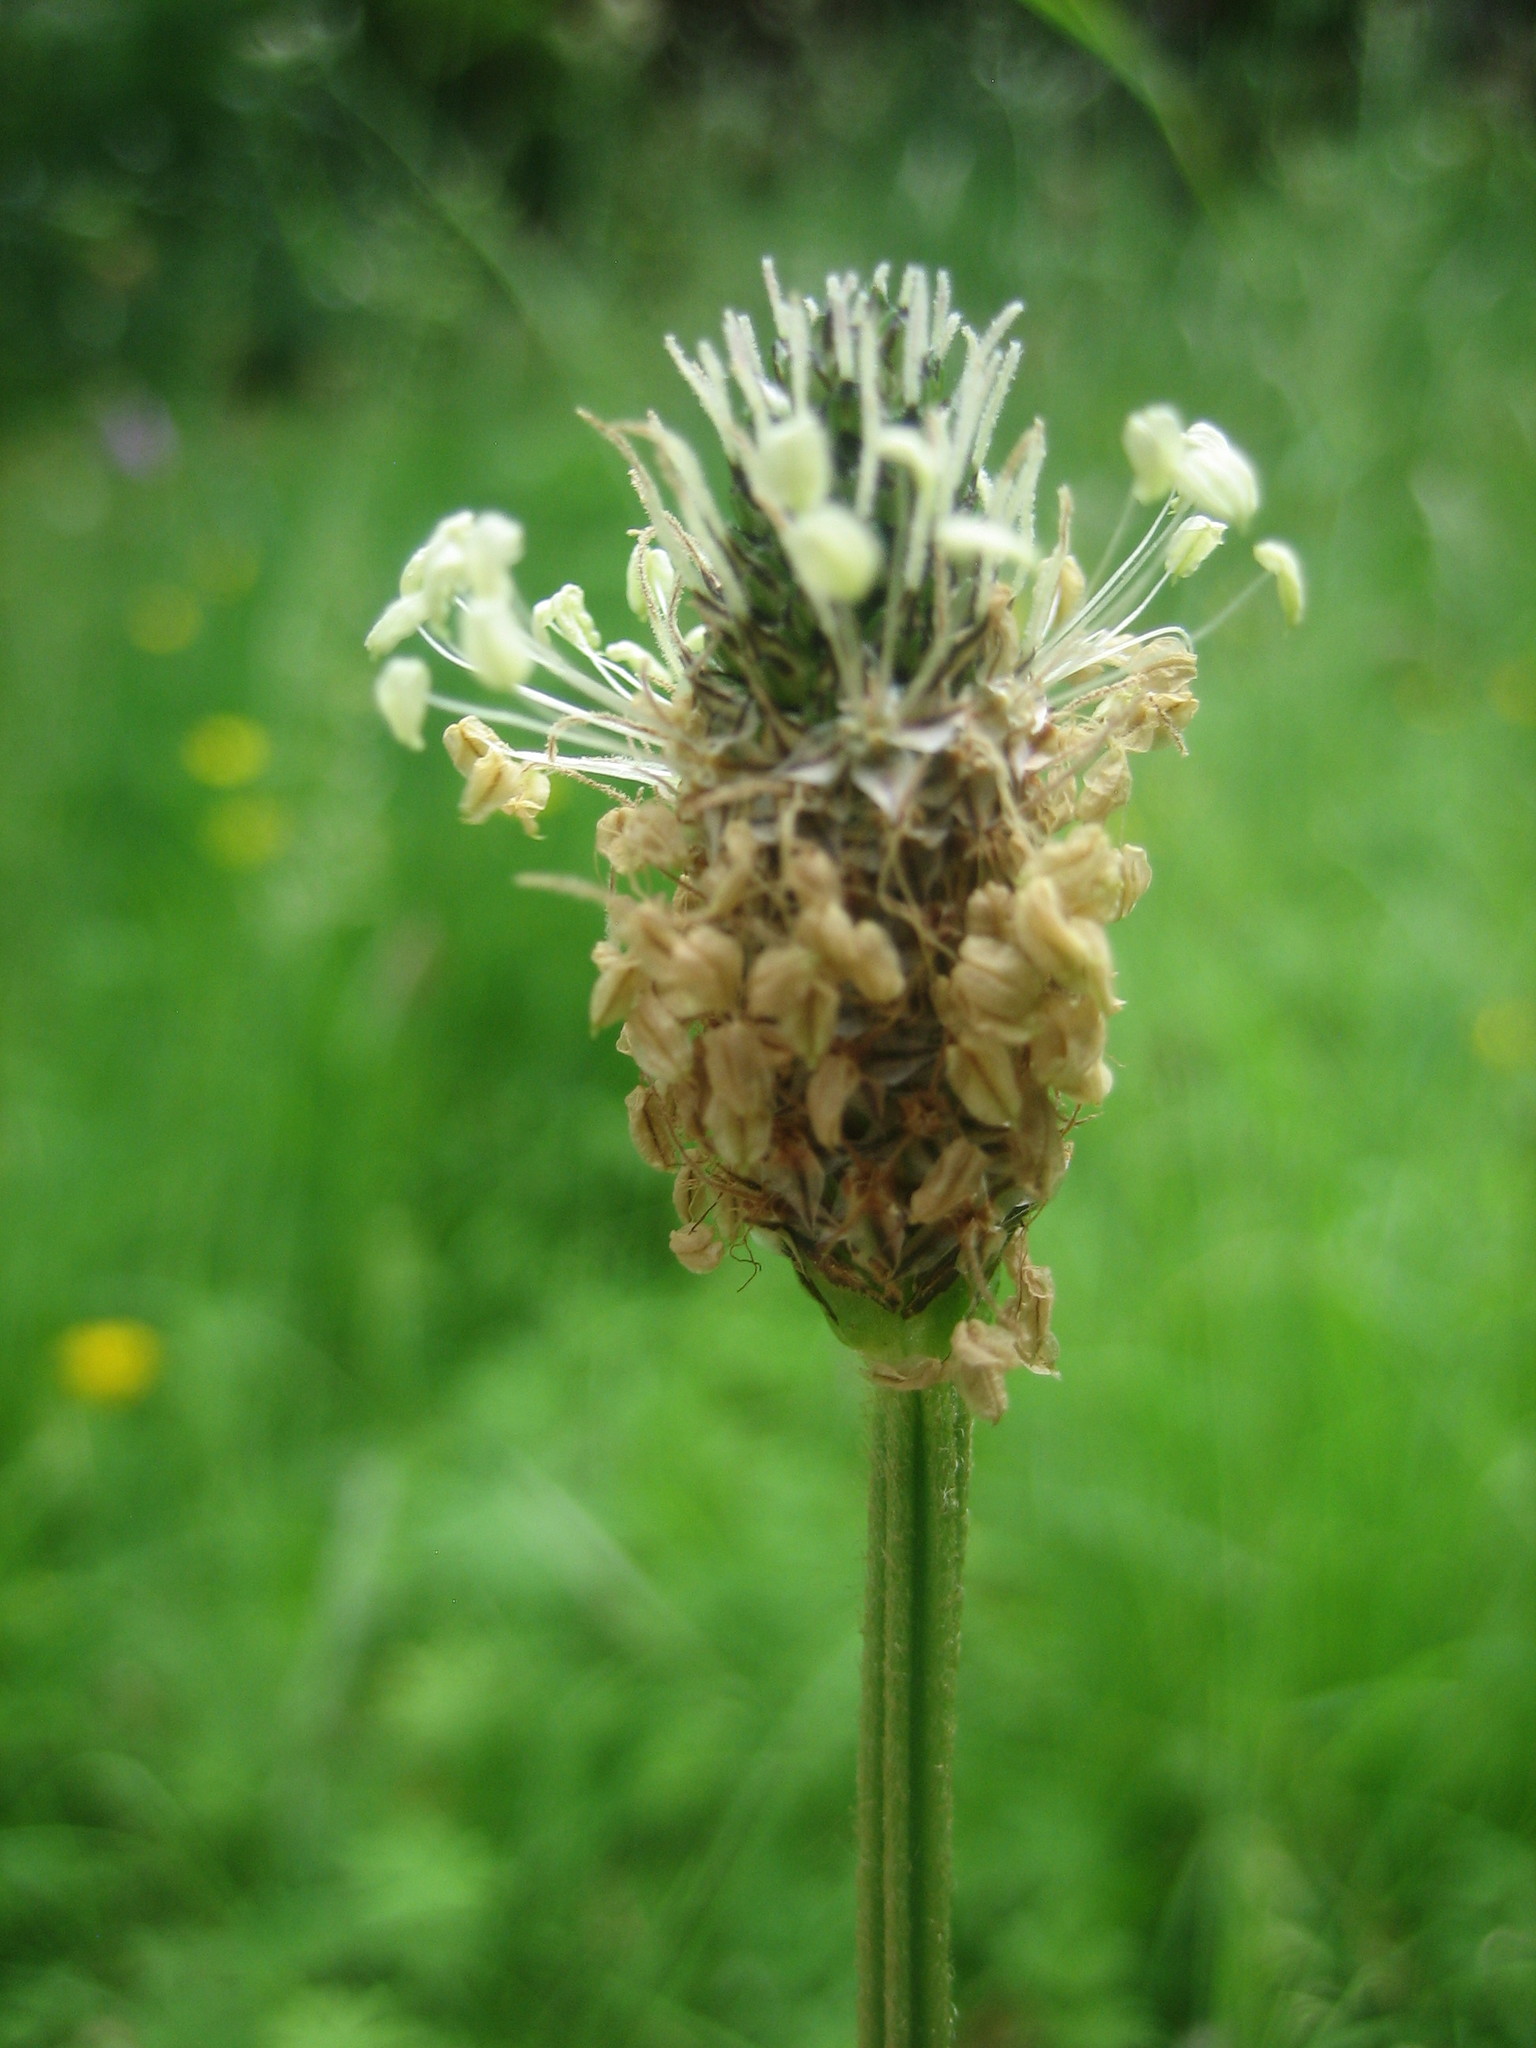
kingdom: Plantae
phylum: Tracheophyta
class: Magnoliopsida
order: Lamiales
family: Plantaginaceae
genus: Plantago
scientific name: Plantago lanceolata
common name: Ribwort plantain
